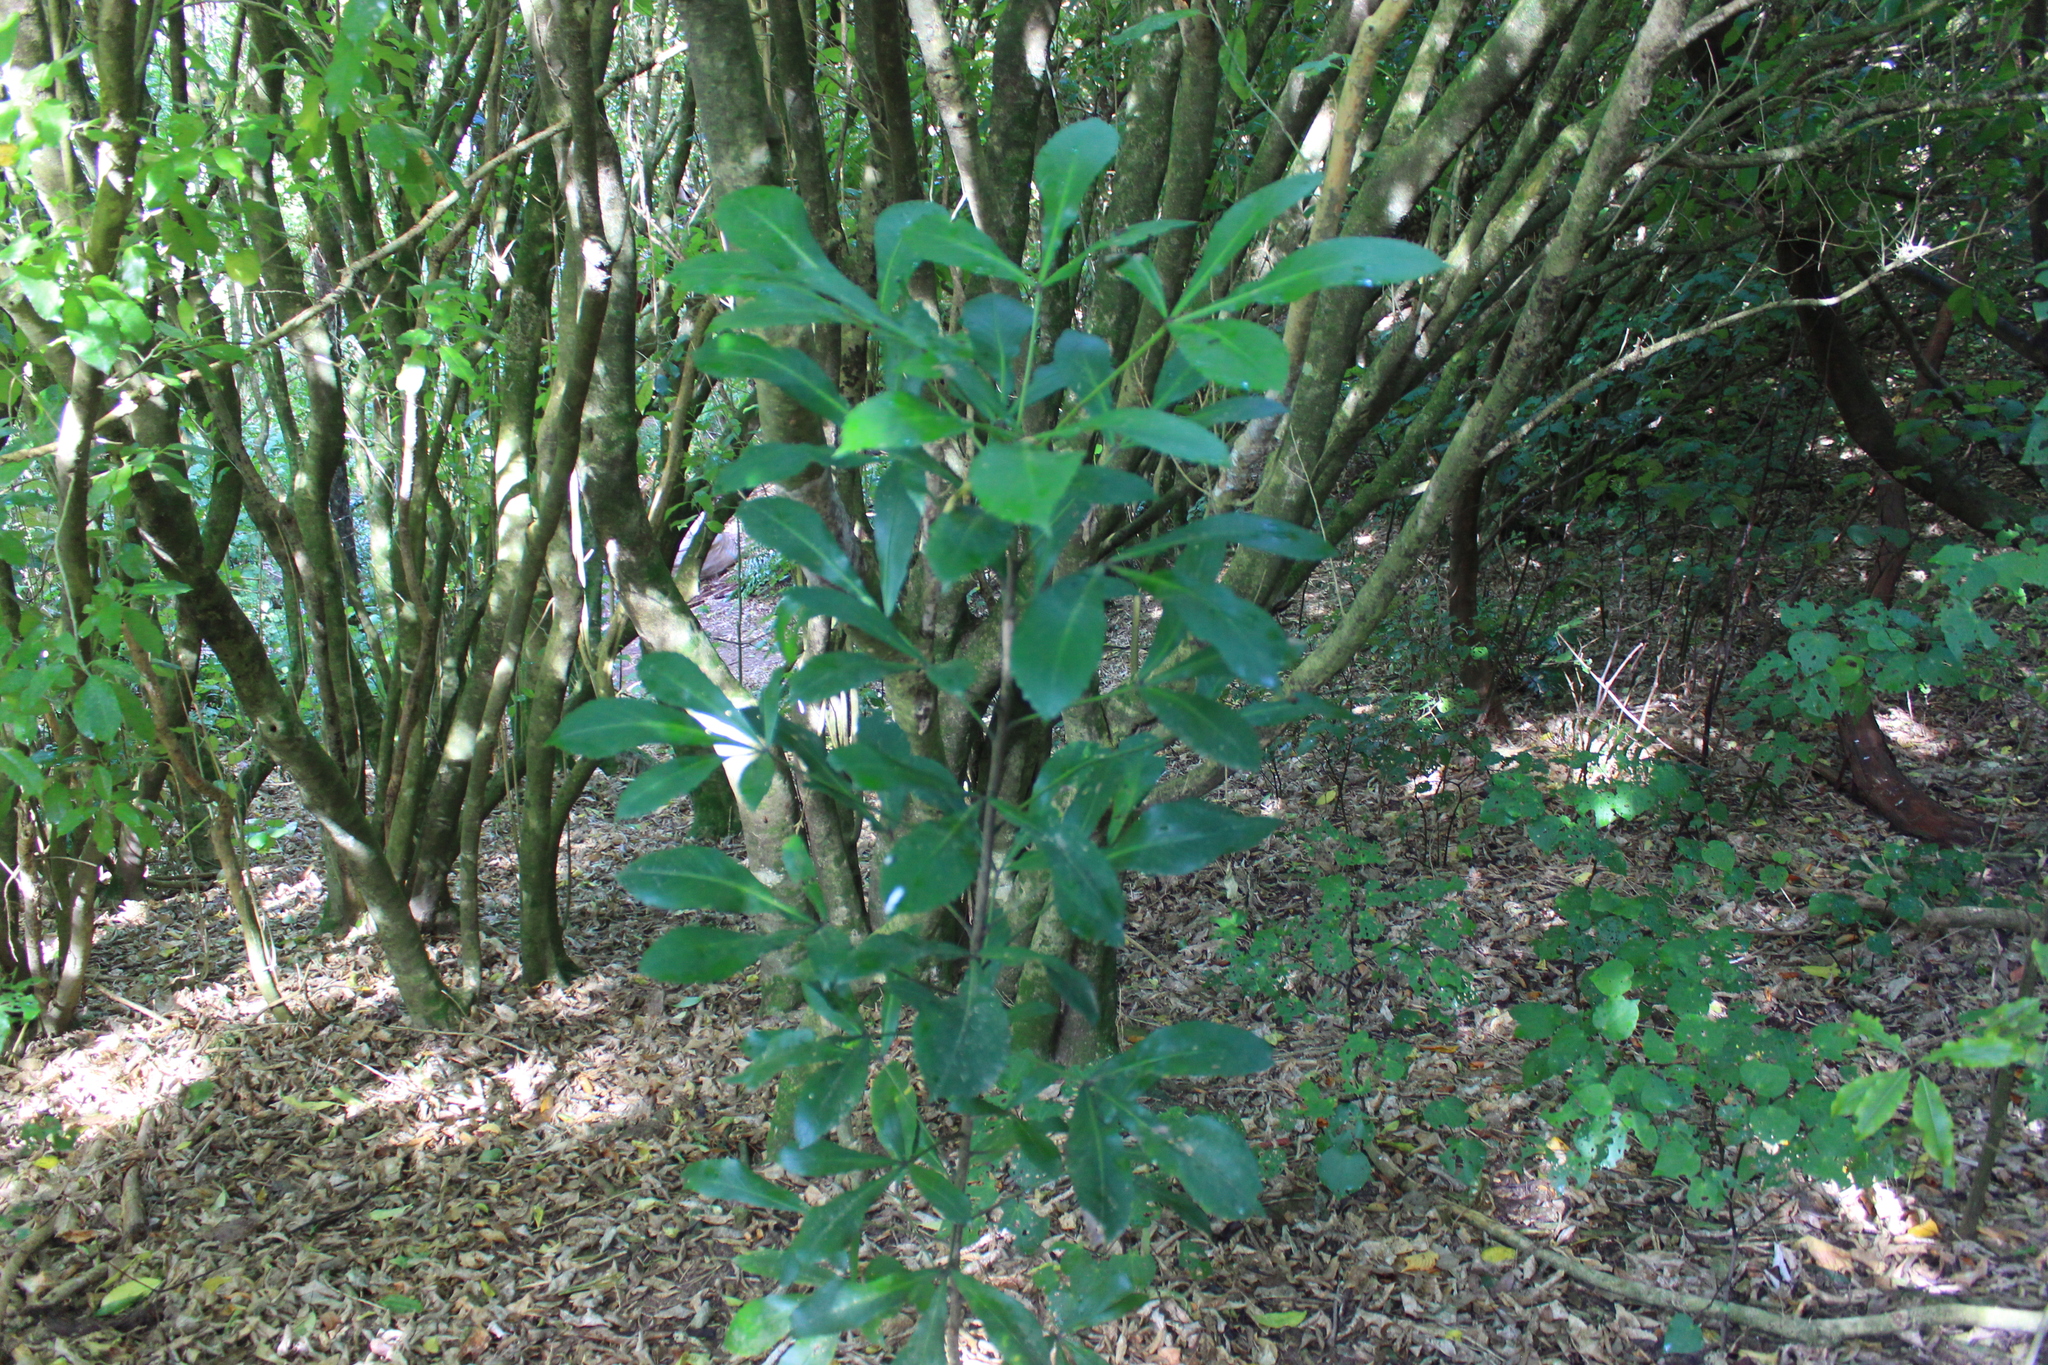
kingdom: Plantae
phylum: Tracheophyta
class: Magnoliopsida
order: Apiales
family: Araliaceae
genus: Pseudopanax
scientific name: Pseudopanax lessonii
